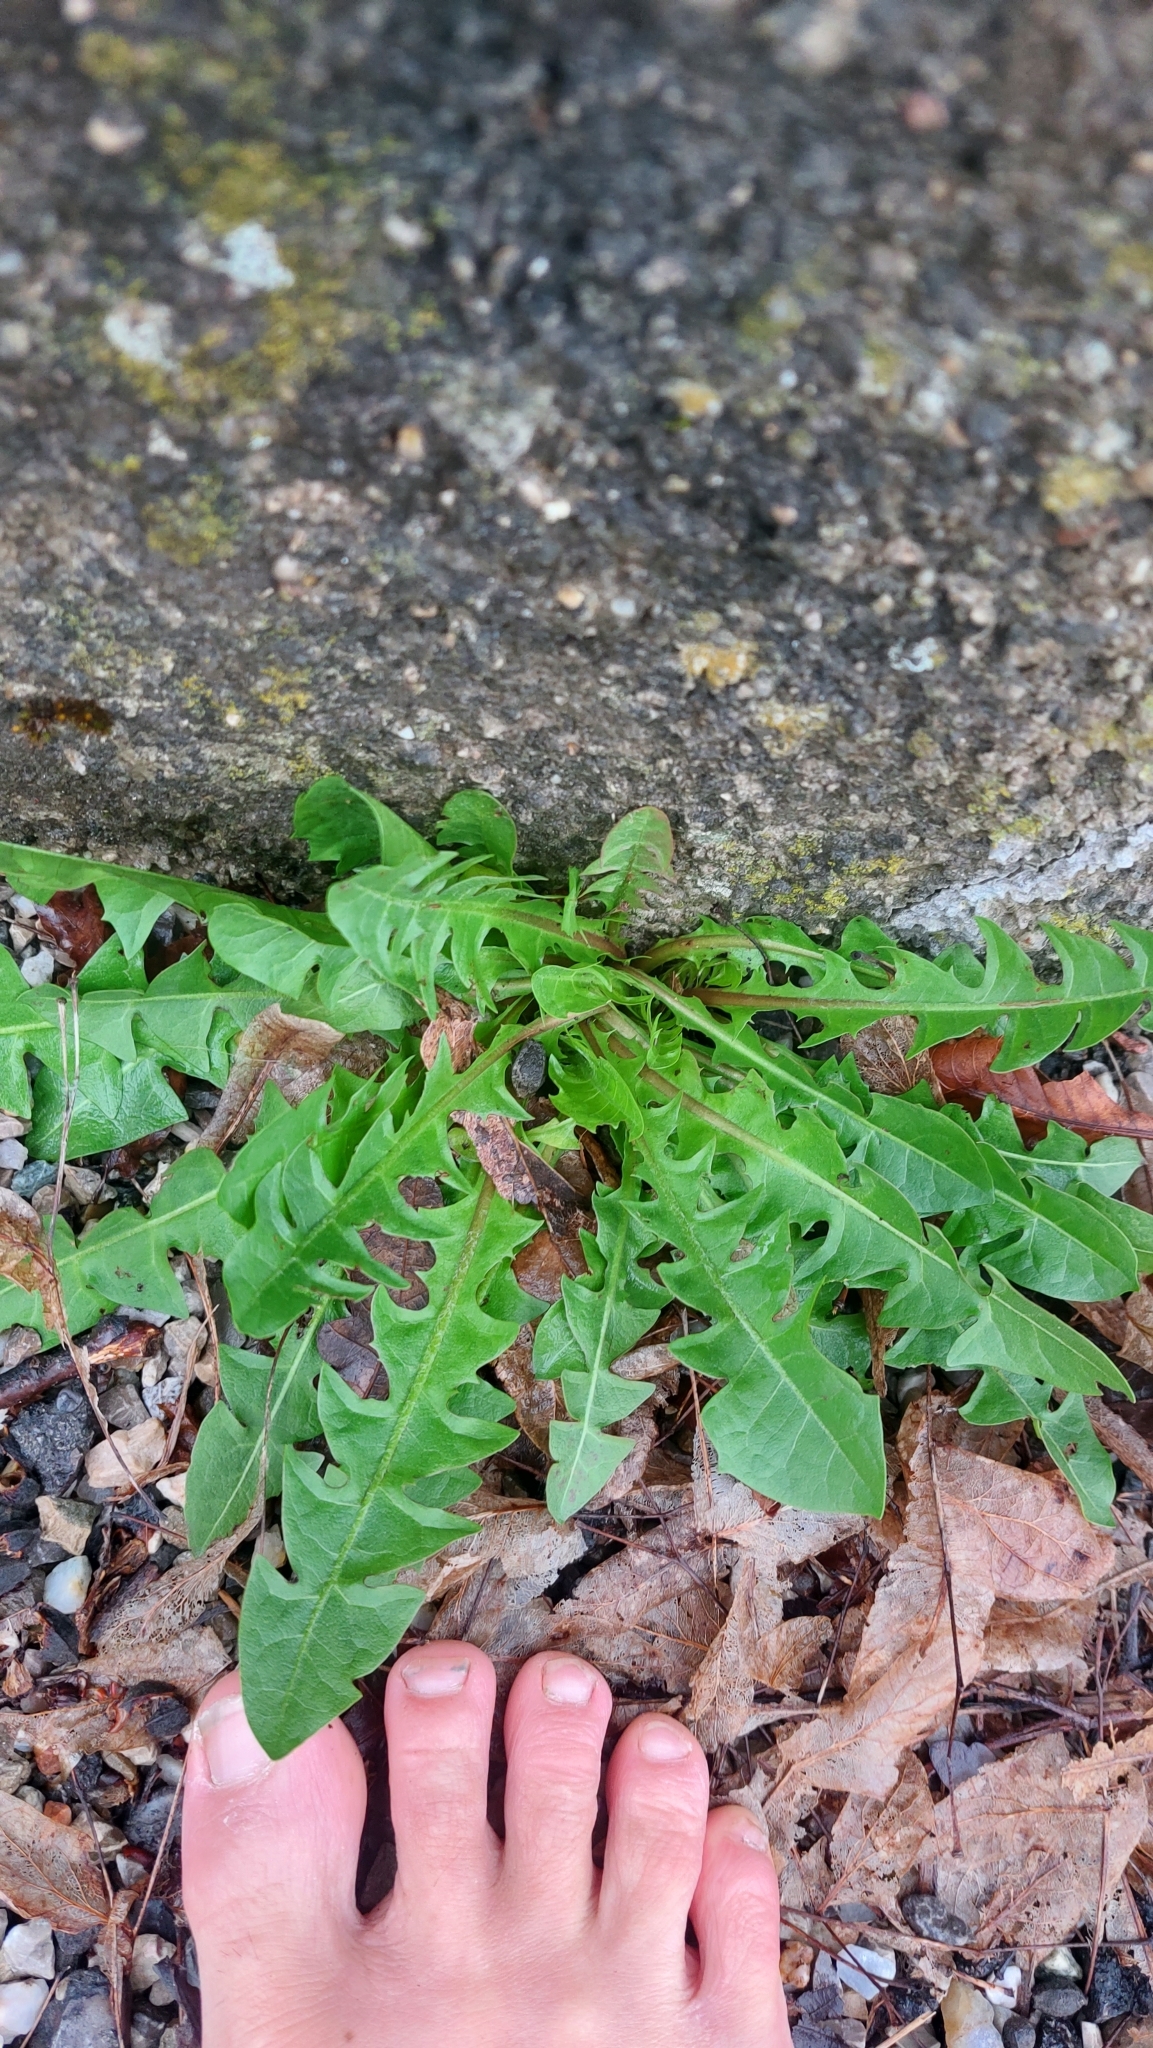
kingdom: Plantae
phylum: Tracheophyta
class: Magnoliopsida
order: Asterales
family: Asteraceae
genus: Taraxacum
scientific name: Taraxacum
